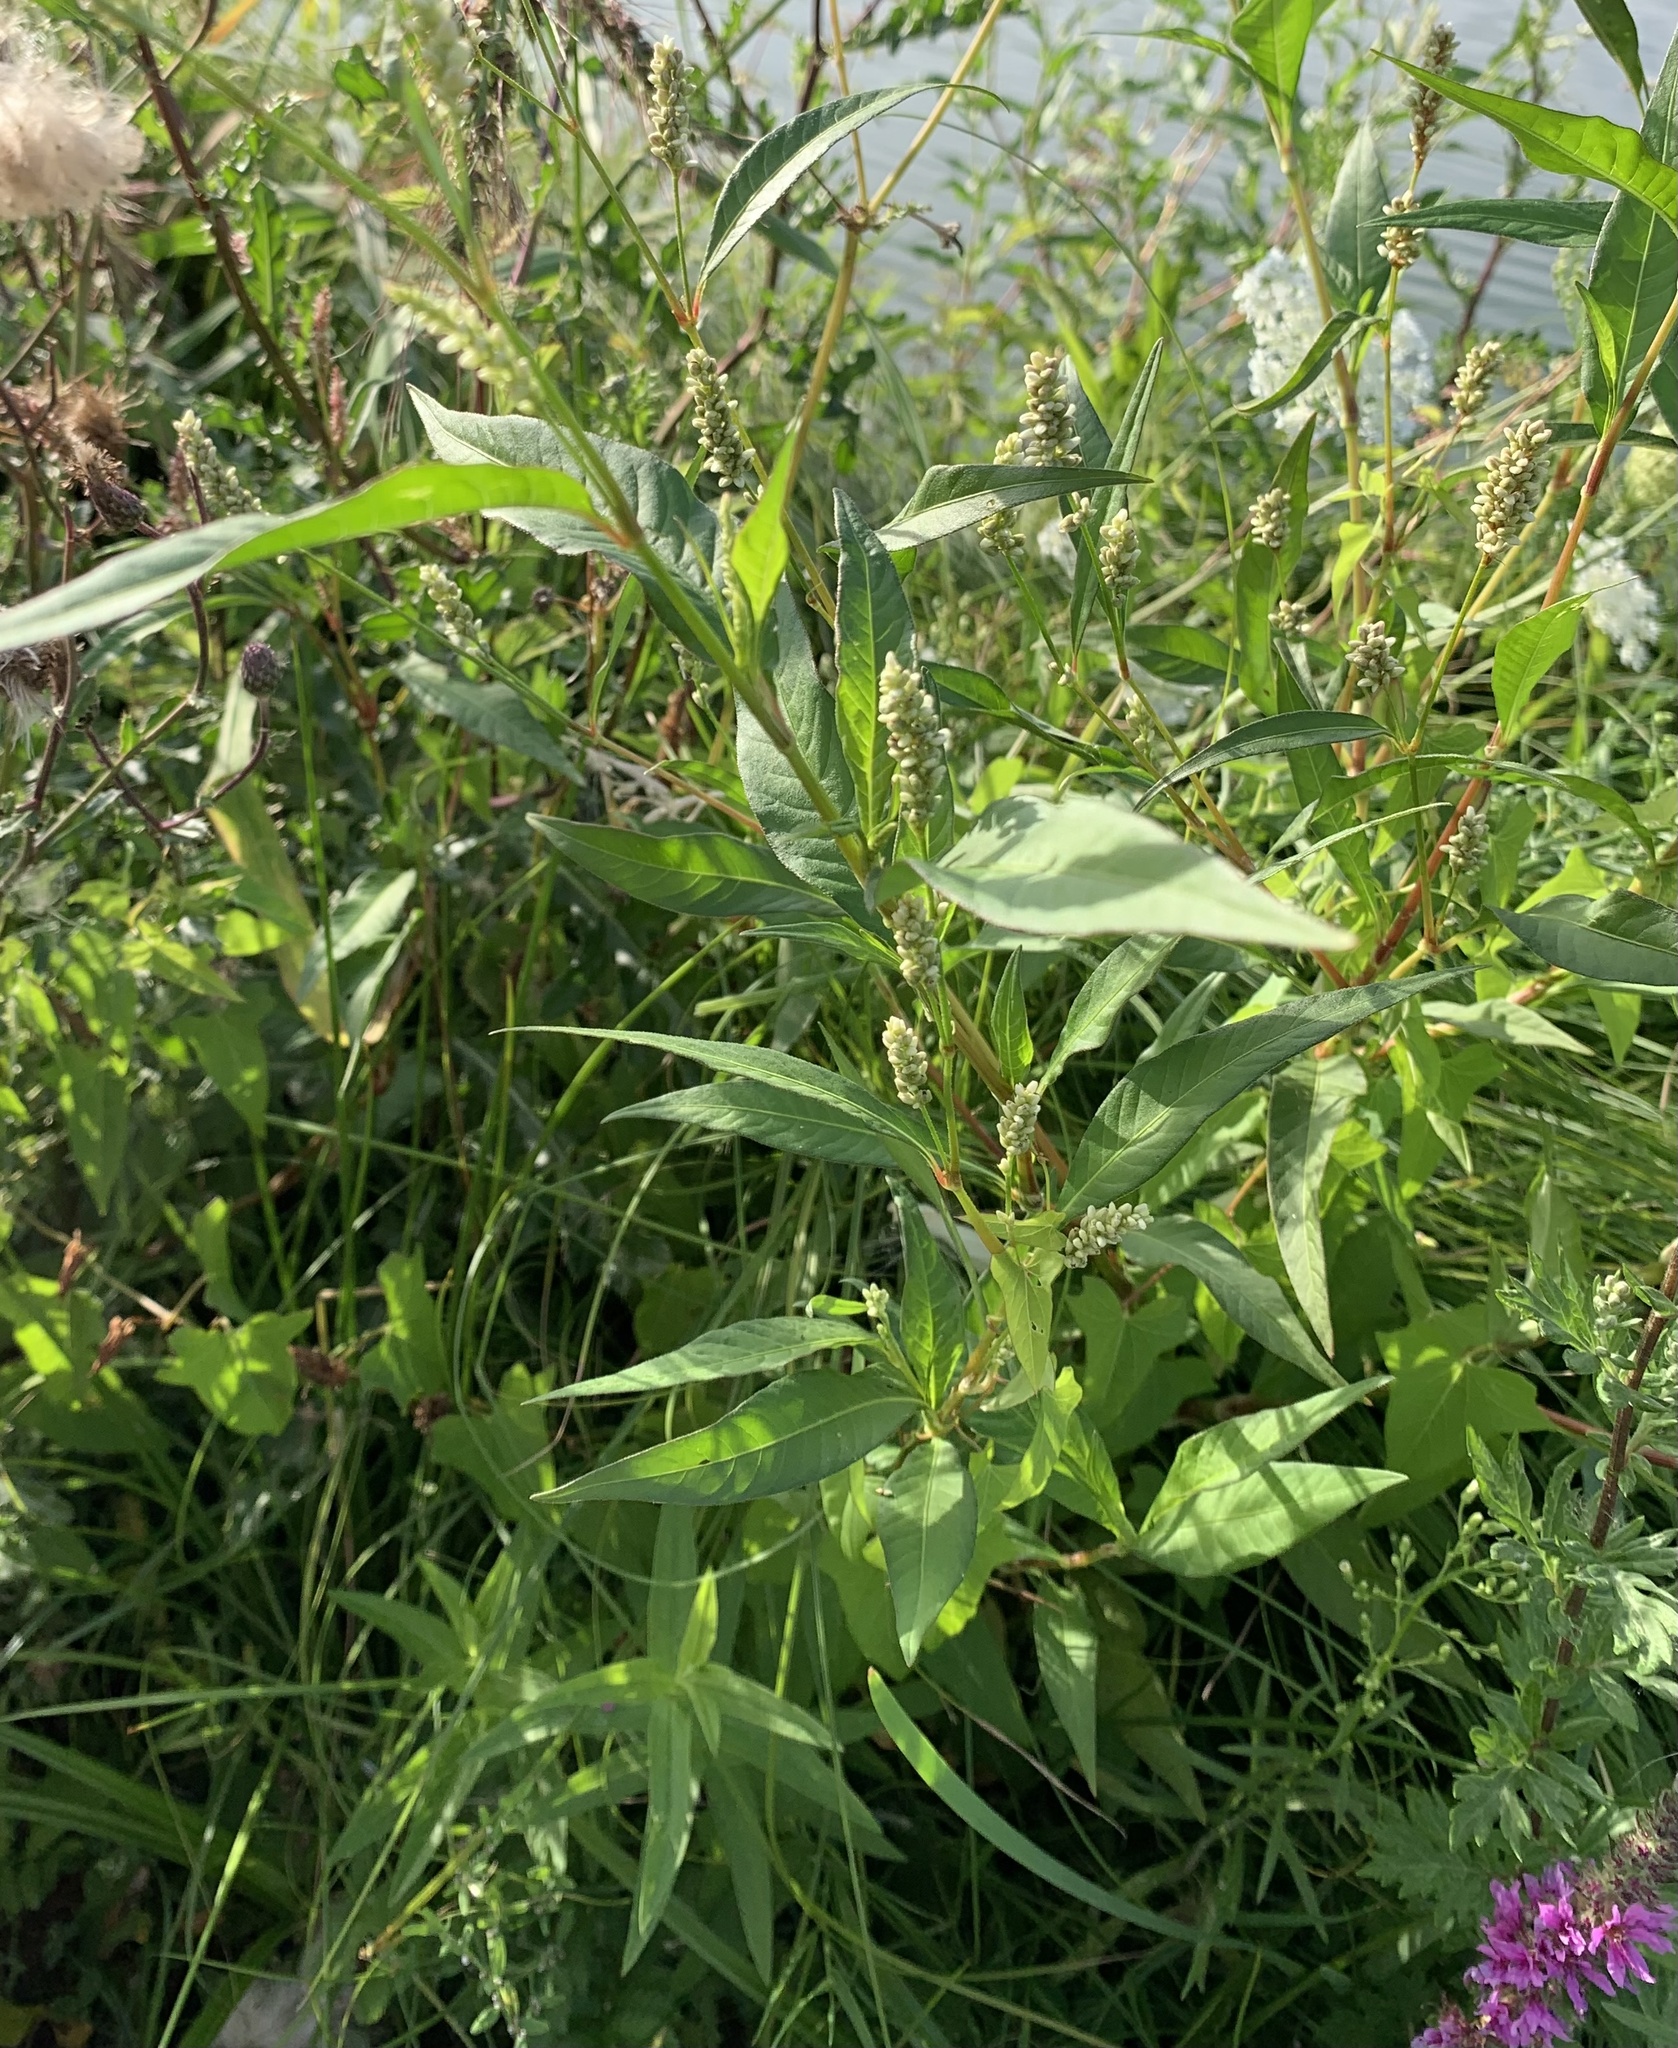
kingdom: Plantae
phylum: Tracheophyta
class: Magnoliopsida
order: Caryophyllales
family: Polygonaceae
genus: Persicaria
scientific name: Persicaria lapathifolia
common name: Curlytop knotweed
